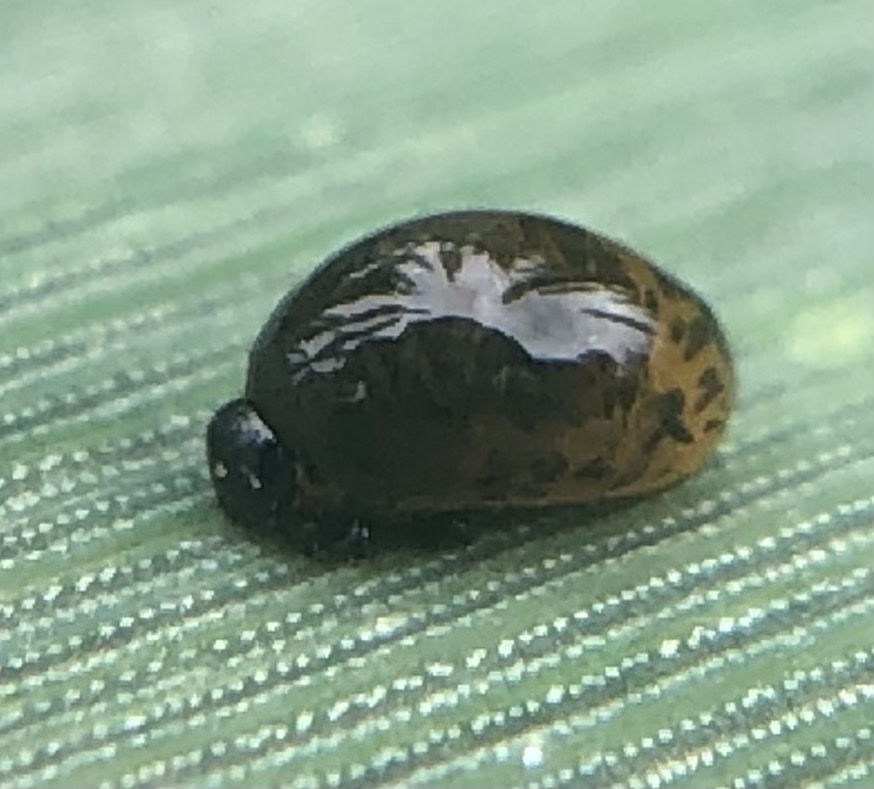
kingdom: Animalia
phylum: Arthropoda
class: Insecta
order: Coleoptera
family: Chrysomelidae
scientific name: Chrysomelidae
